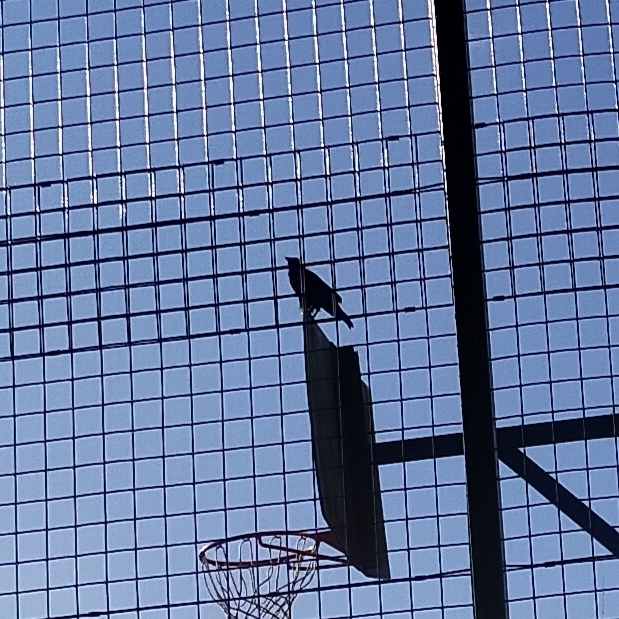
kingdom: Animalia
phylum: Chordata
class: Aves
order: Passeriformes
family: Corvidae
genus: Corvus
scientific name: Corvus corone
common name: Carrion crow
